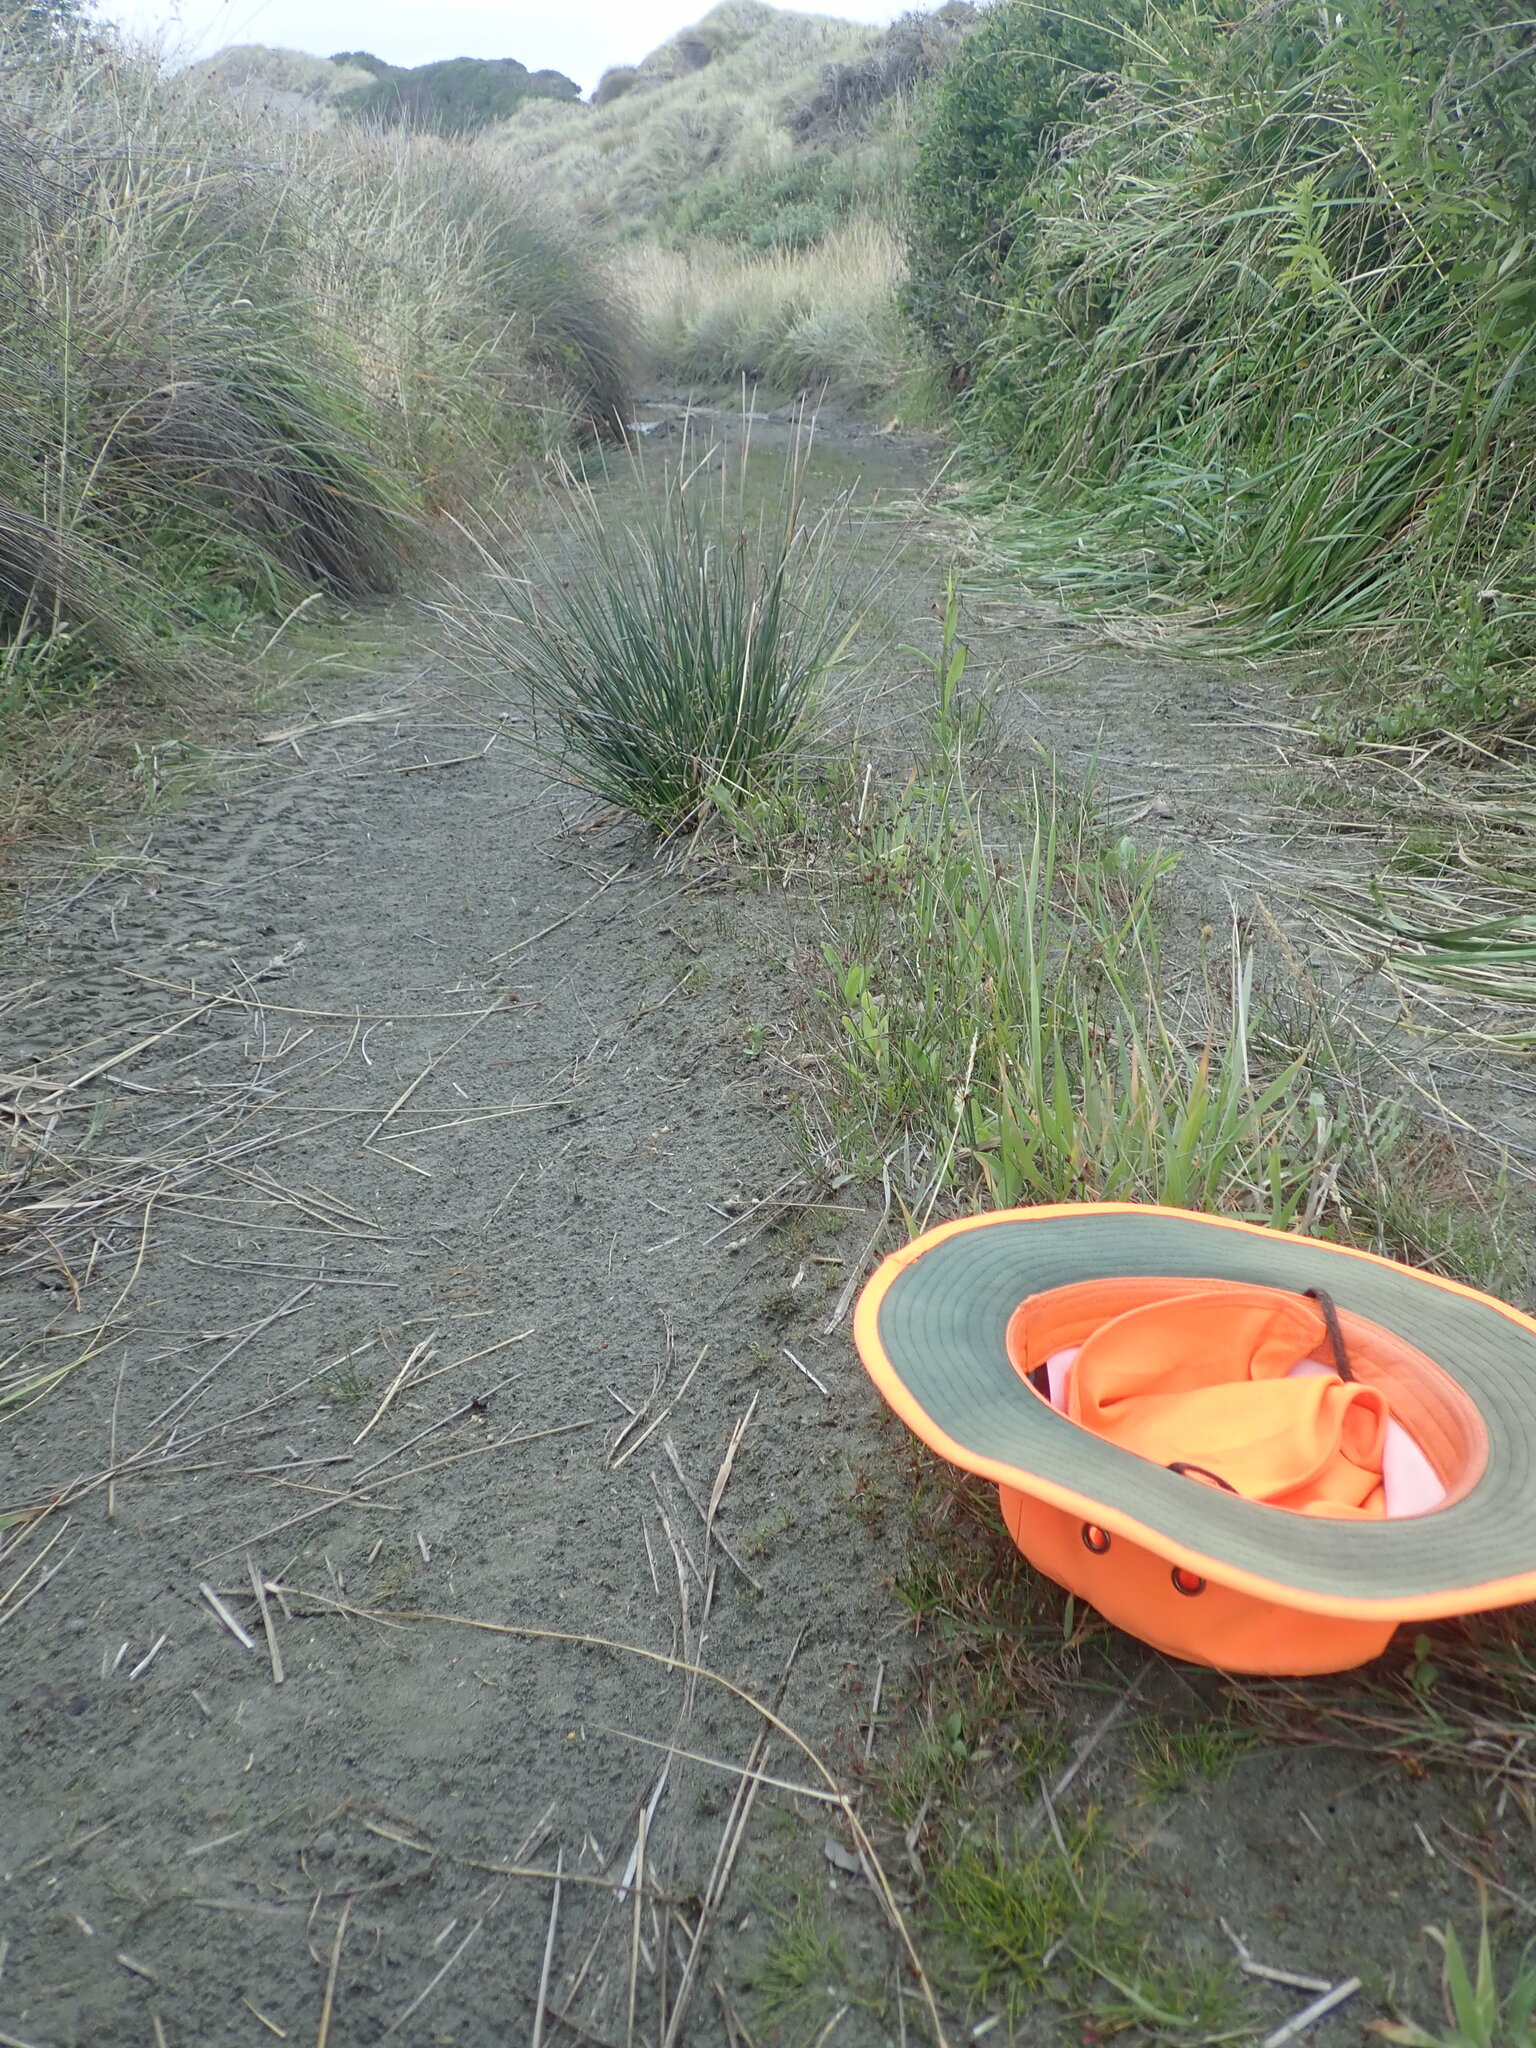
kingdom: Plantae
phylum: Tracheophyta
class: Liliopsida
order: Alismatales
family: Juncaginaceae
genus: Triglochin
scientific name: Triglochin striata
